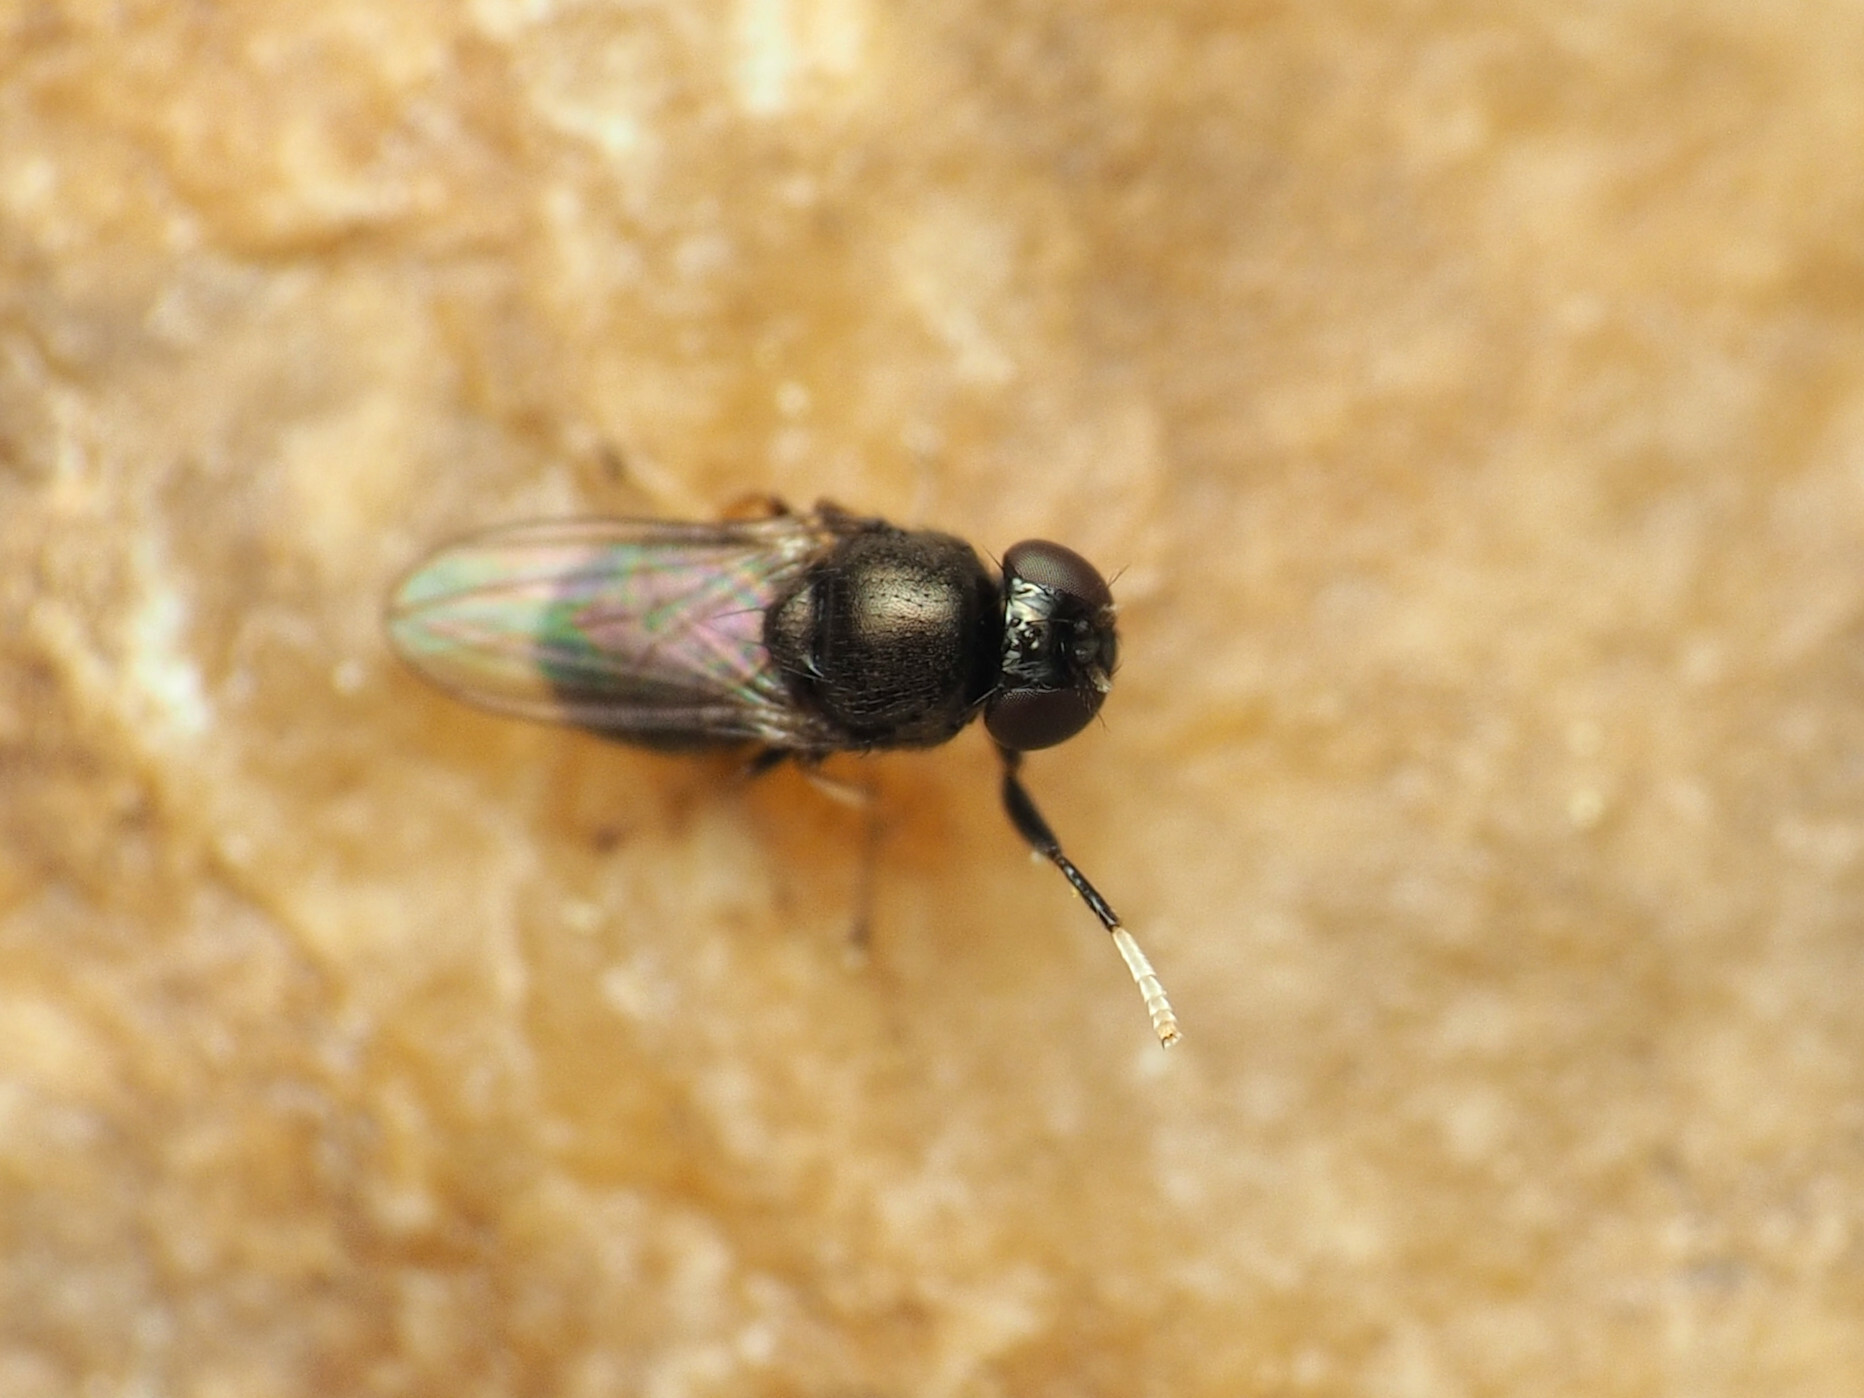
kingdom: Animalia
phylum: Arthropoda
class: Insecta
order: Diptera
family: Ephydridae
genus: Athyroglossa
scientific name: Athyroglossa glaphyropus
